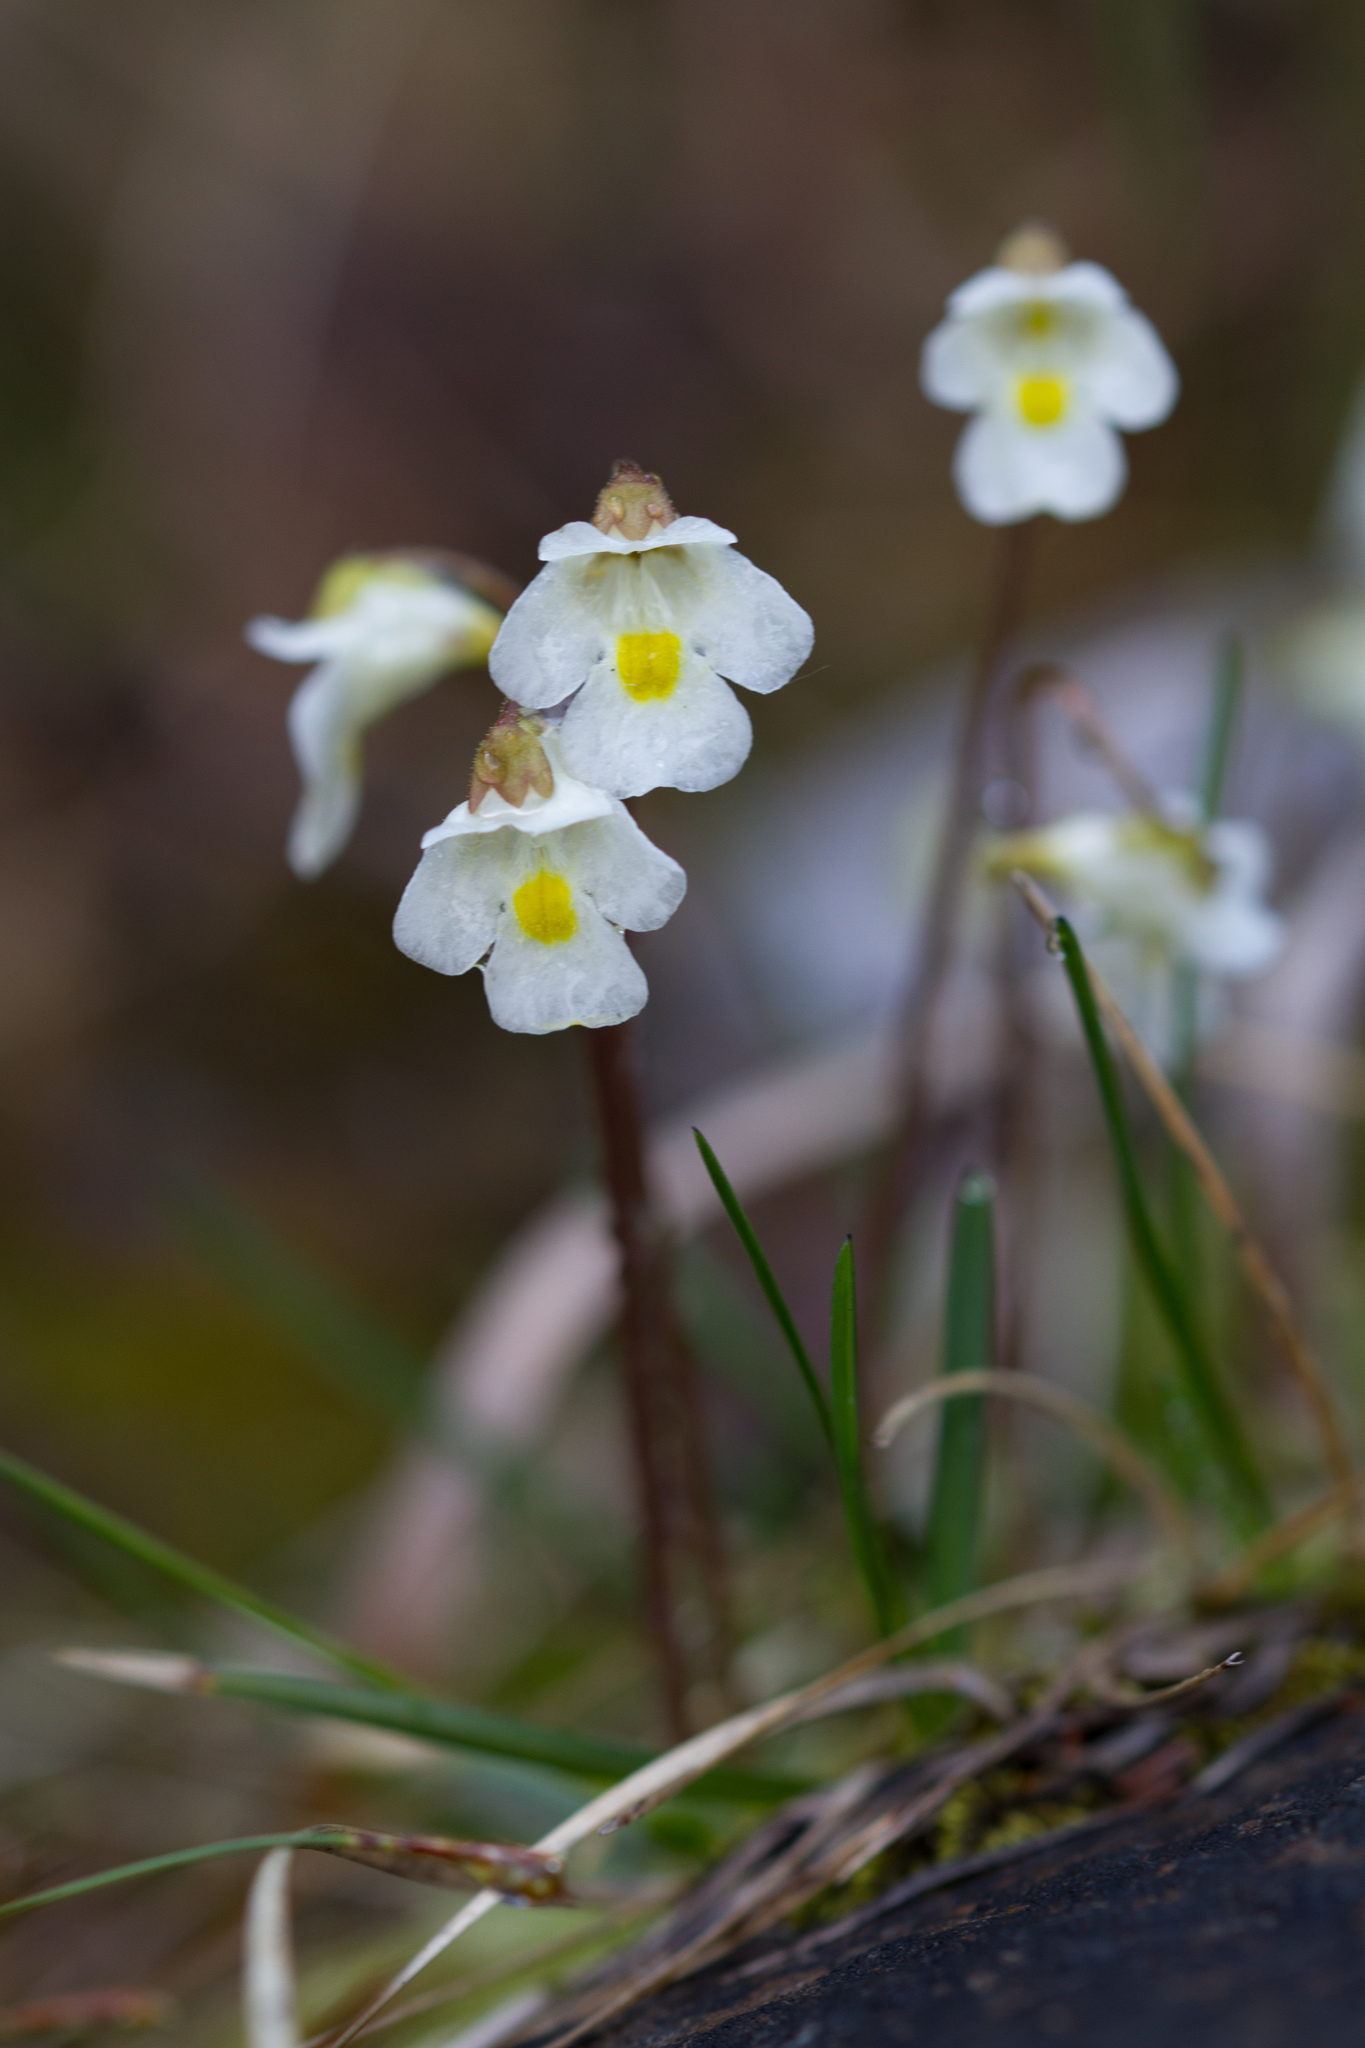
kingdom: Plantae
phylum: Tracheophyta
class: Magnoliopsida
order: Lamiales
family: Lentibulariaceae
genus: Pinguicula
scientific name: Pinguicula alpina
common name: Alpine butterwort
